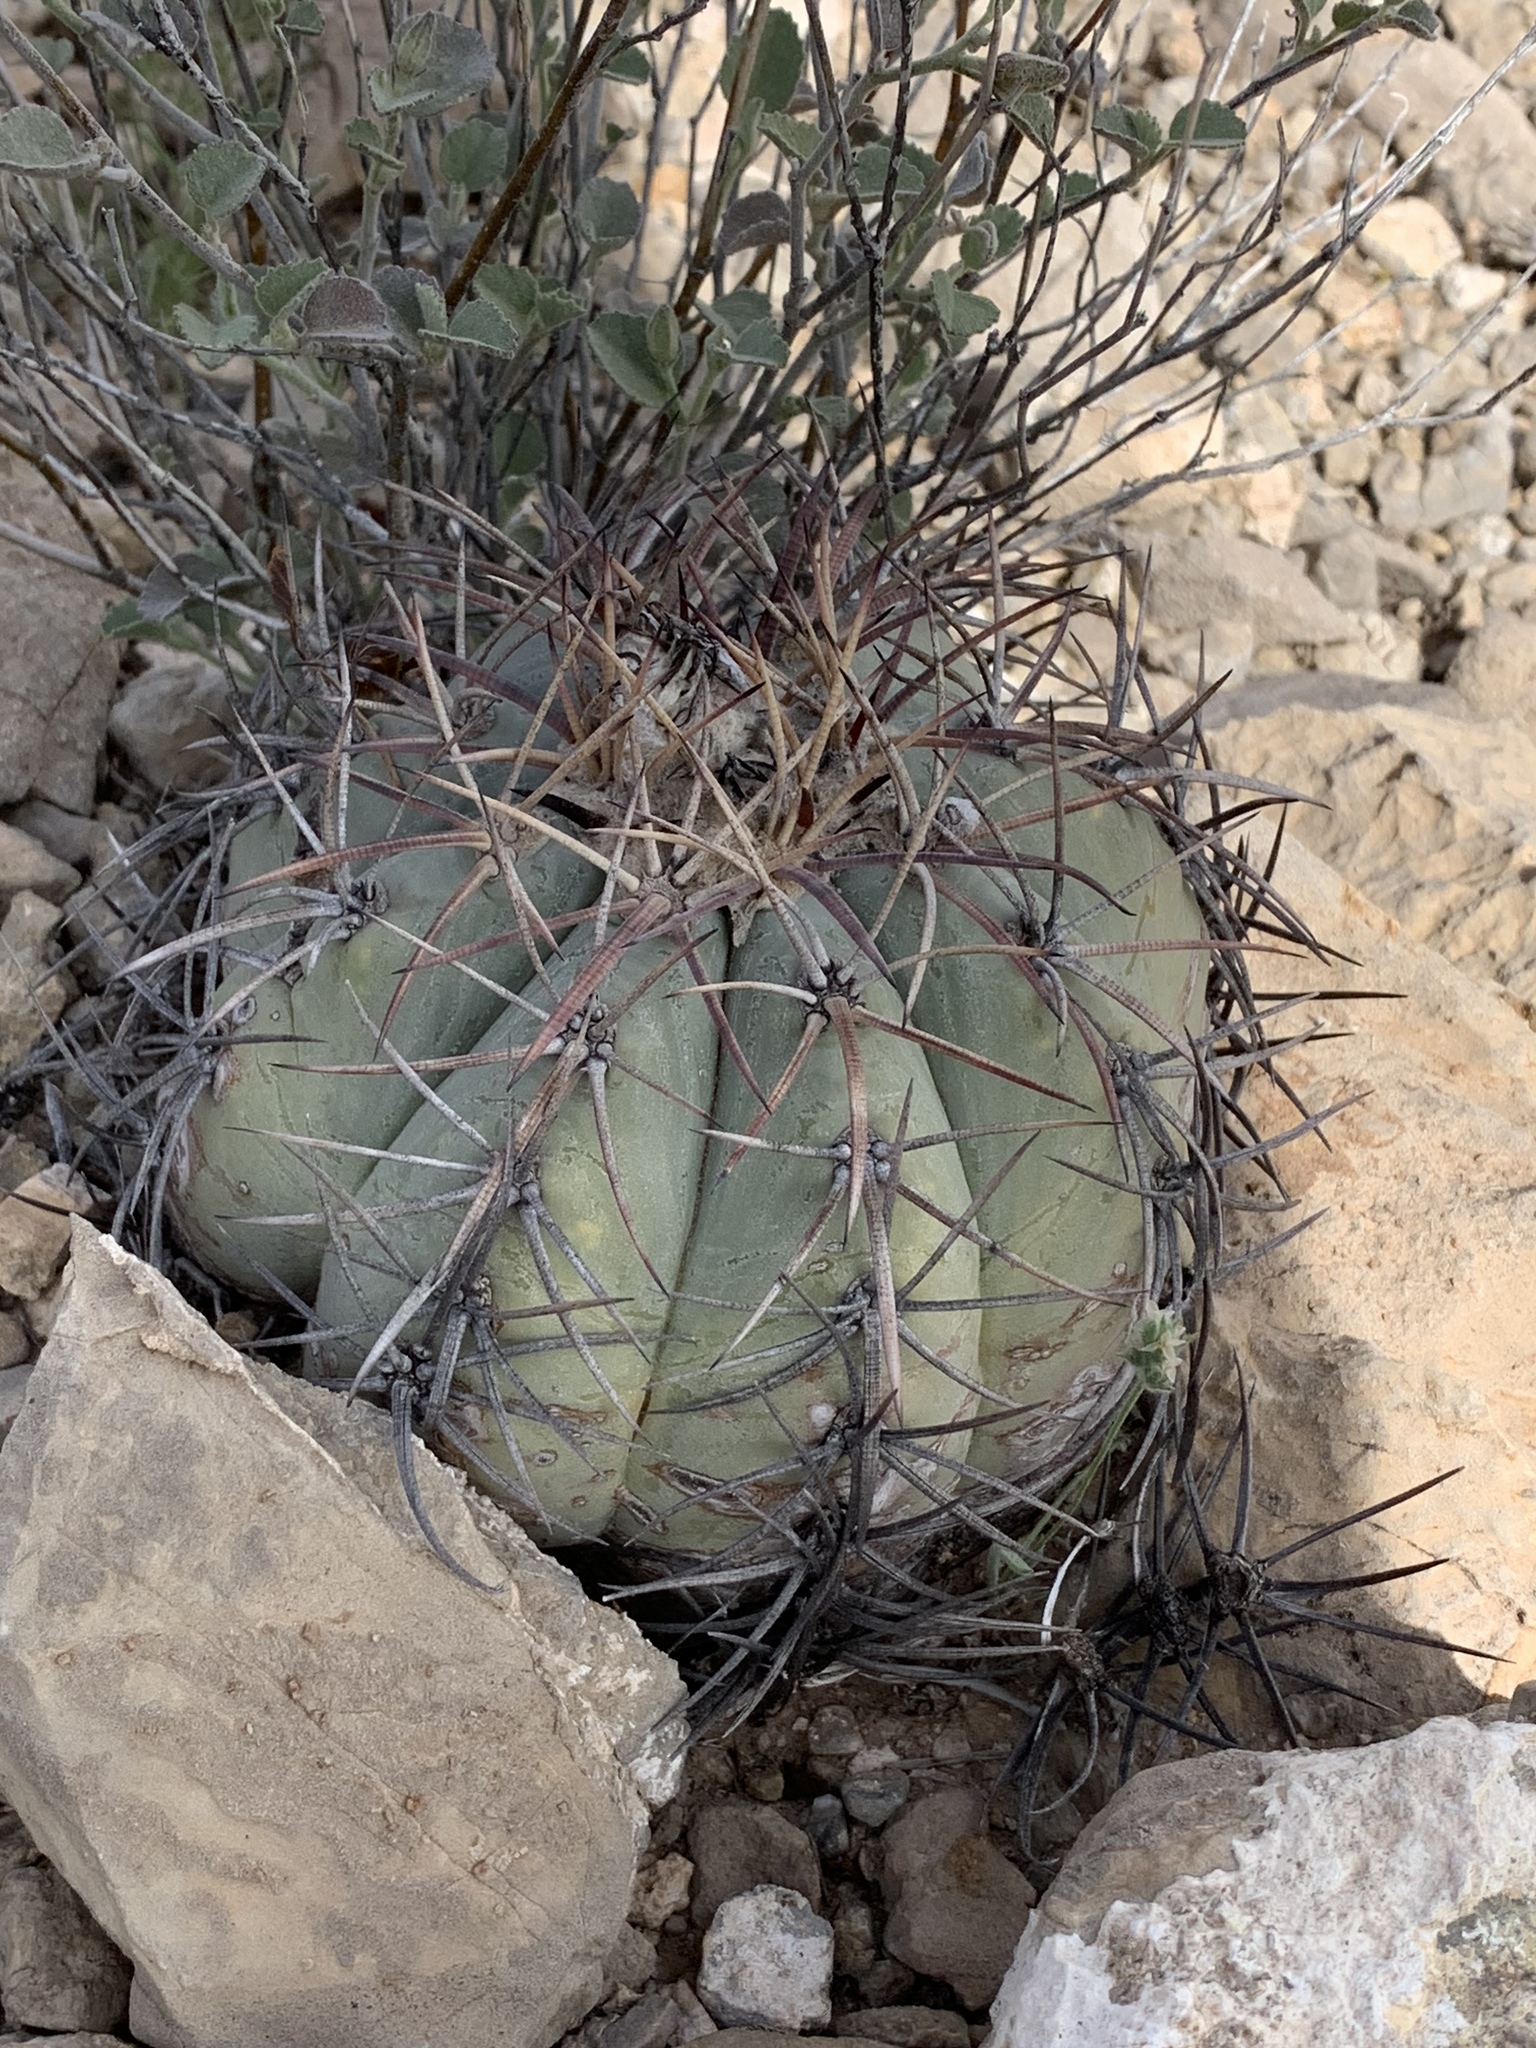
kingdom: Plantae
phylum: Tracheophyta
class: Magnoliopsida
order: Caryophyllales
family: Cactaceae
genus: Echinocactus
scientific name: Echinocactus horizonthalonius
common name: Devilshead
